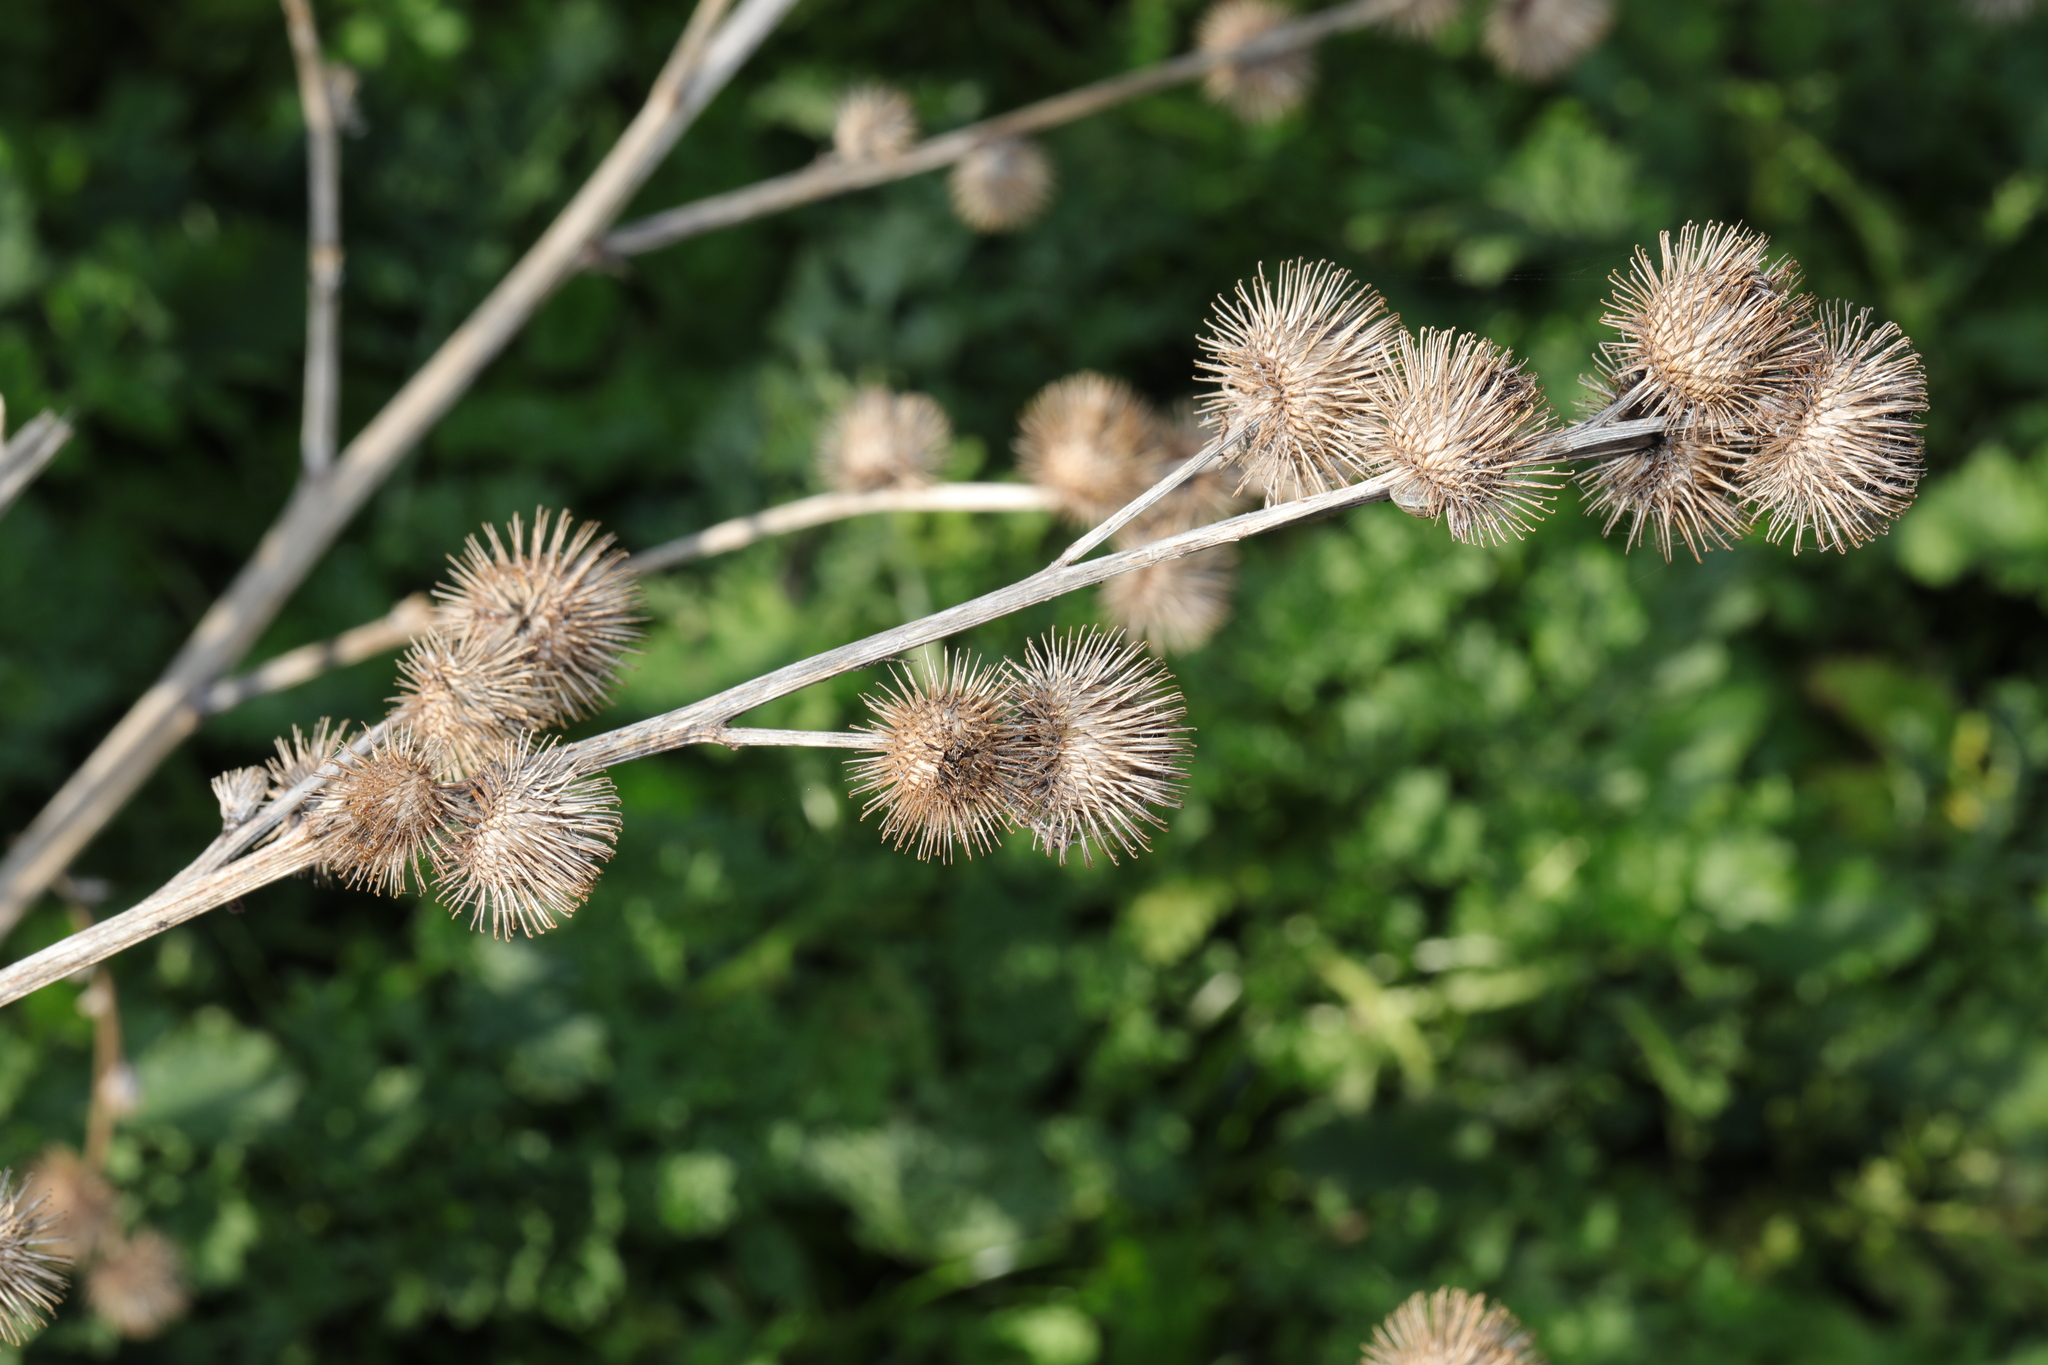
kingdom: Plantae
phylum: Tracheophyta
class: Magnoliopsida
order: Asterales
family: Asteraceae
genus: Arctium
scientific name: Arctium minus
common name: Lesser burdock
